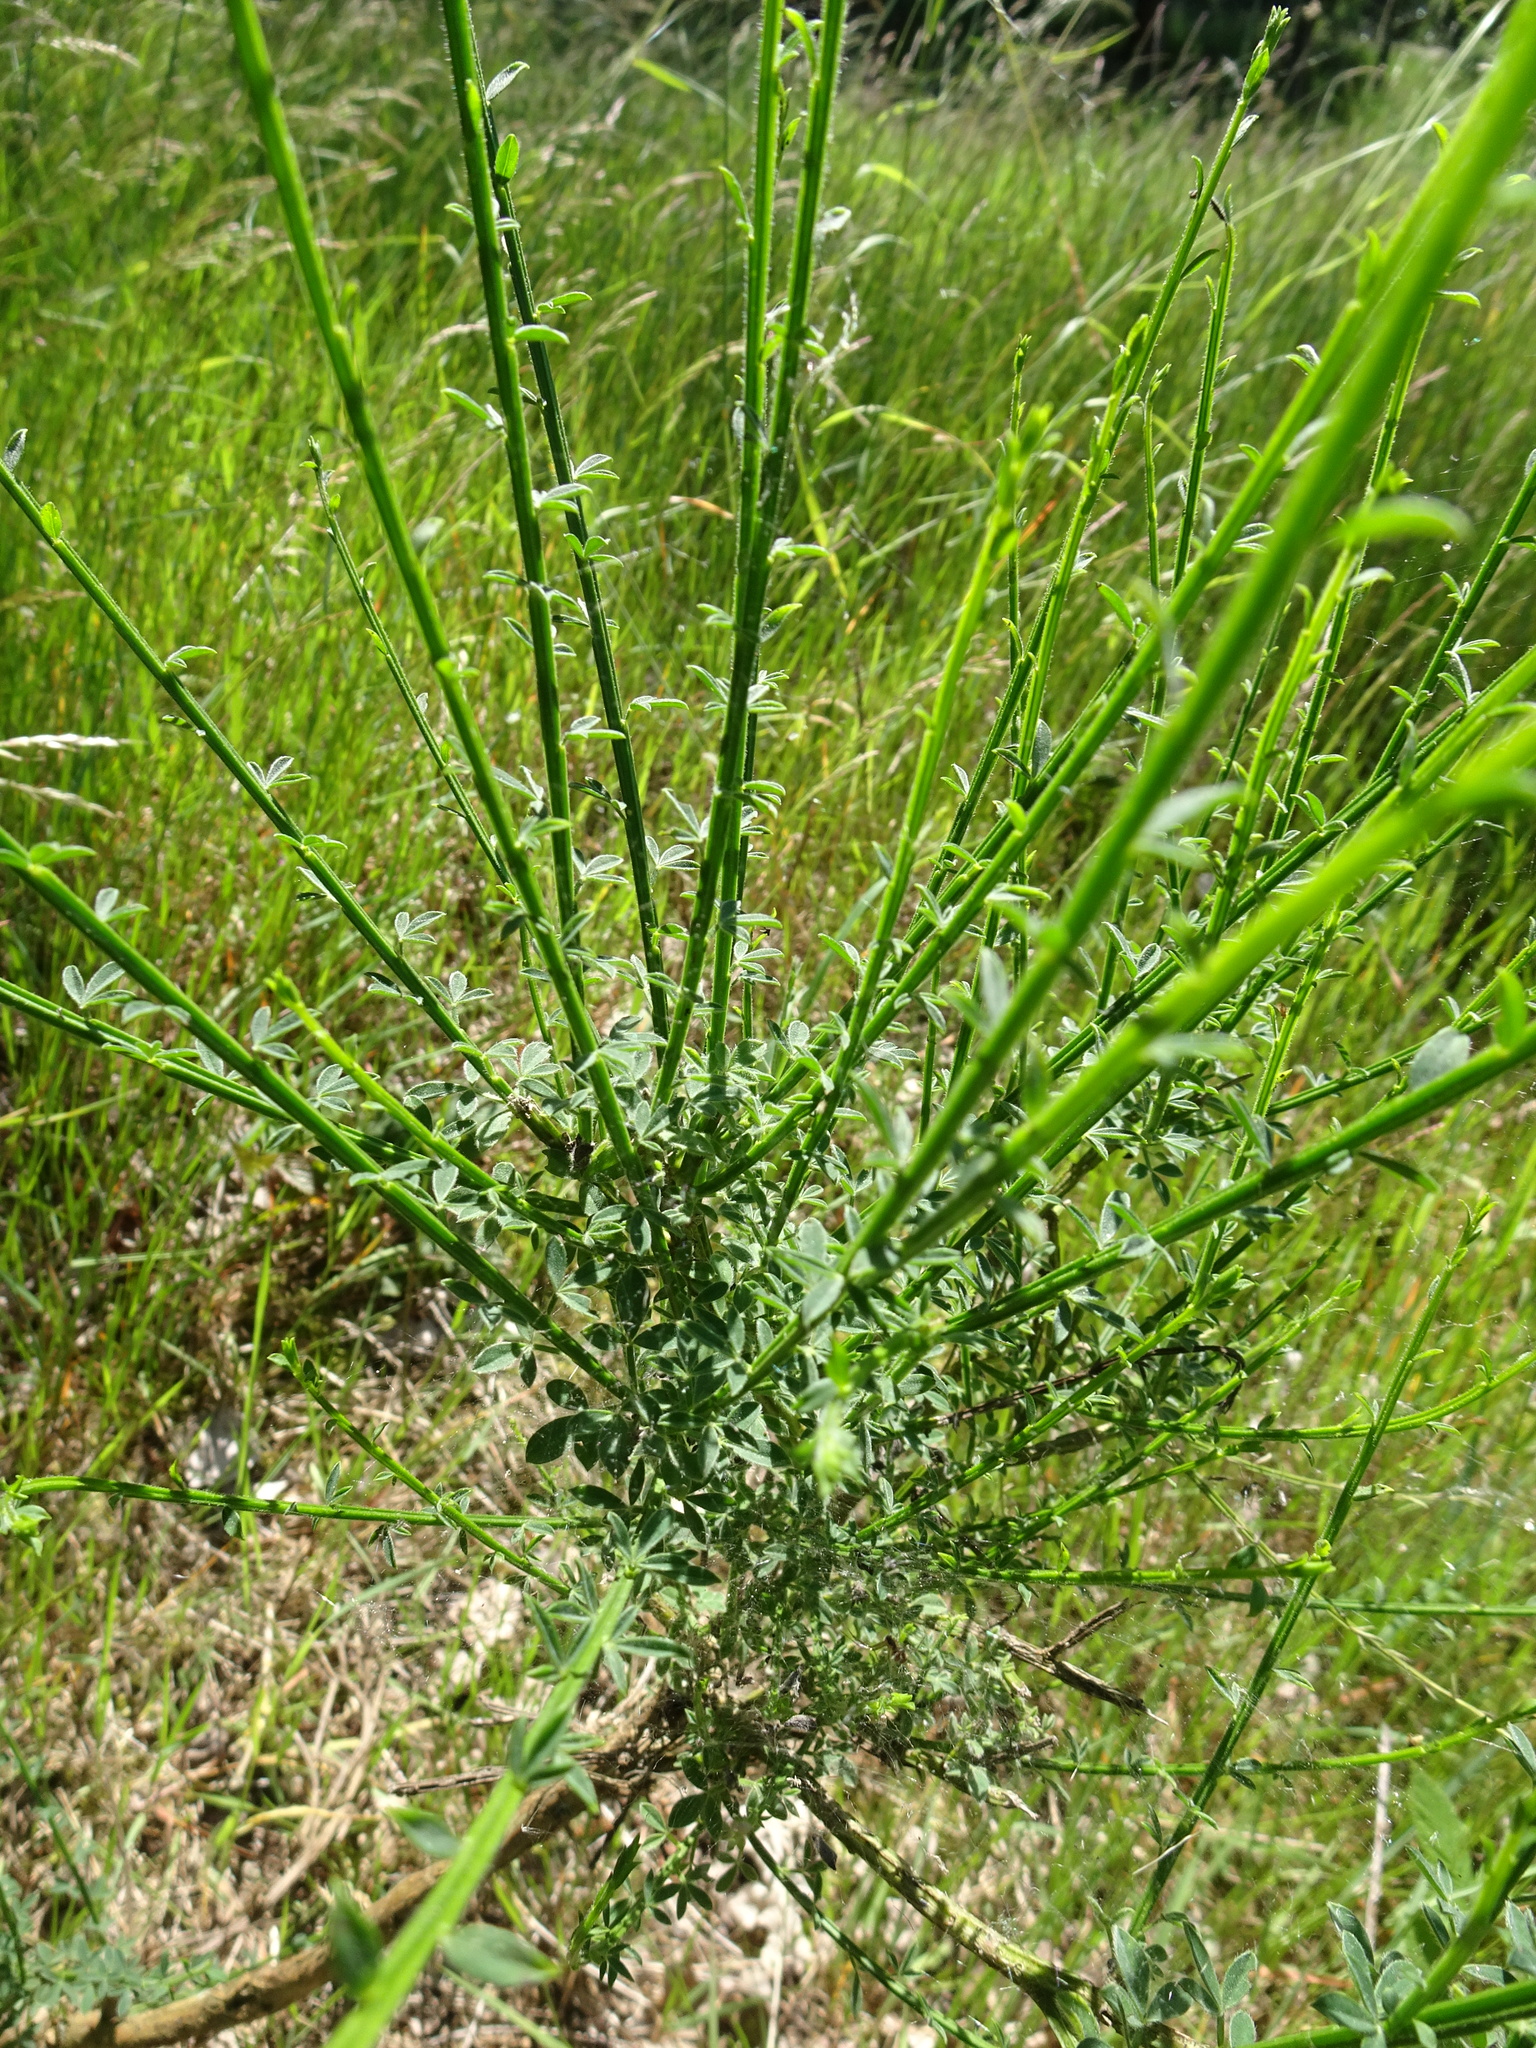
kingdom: Plantae
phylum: Tracheophyta
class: Magnoliopsida
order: Fabales
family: Fabaceae
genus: Cytisus
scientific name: Cytisus scoparius
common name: Scotch broom
